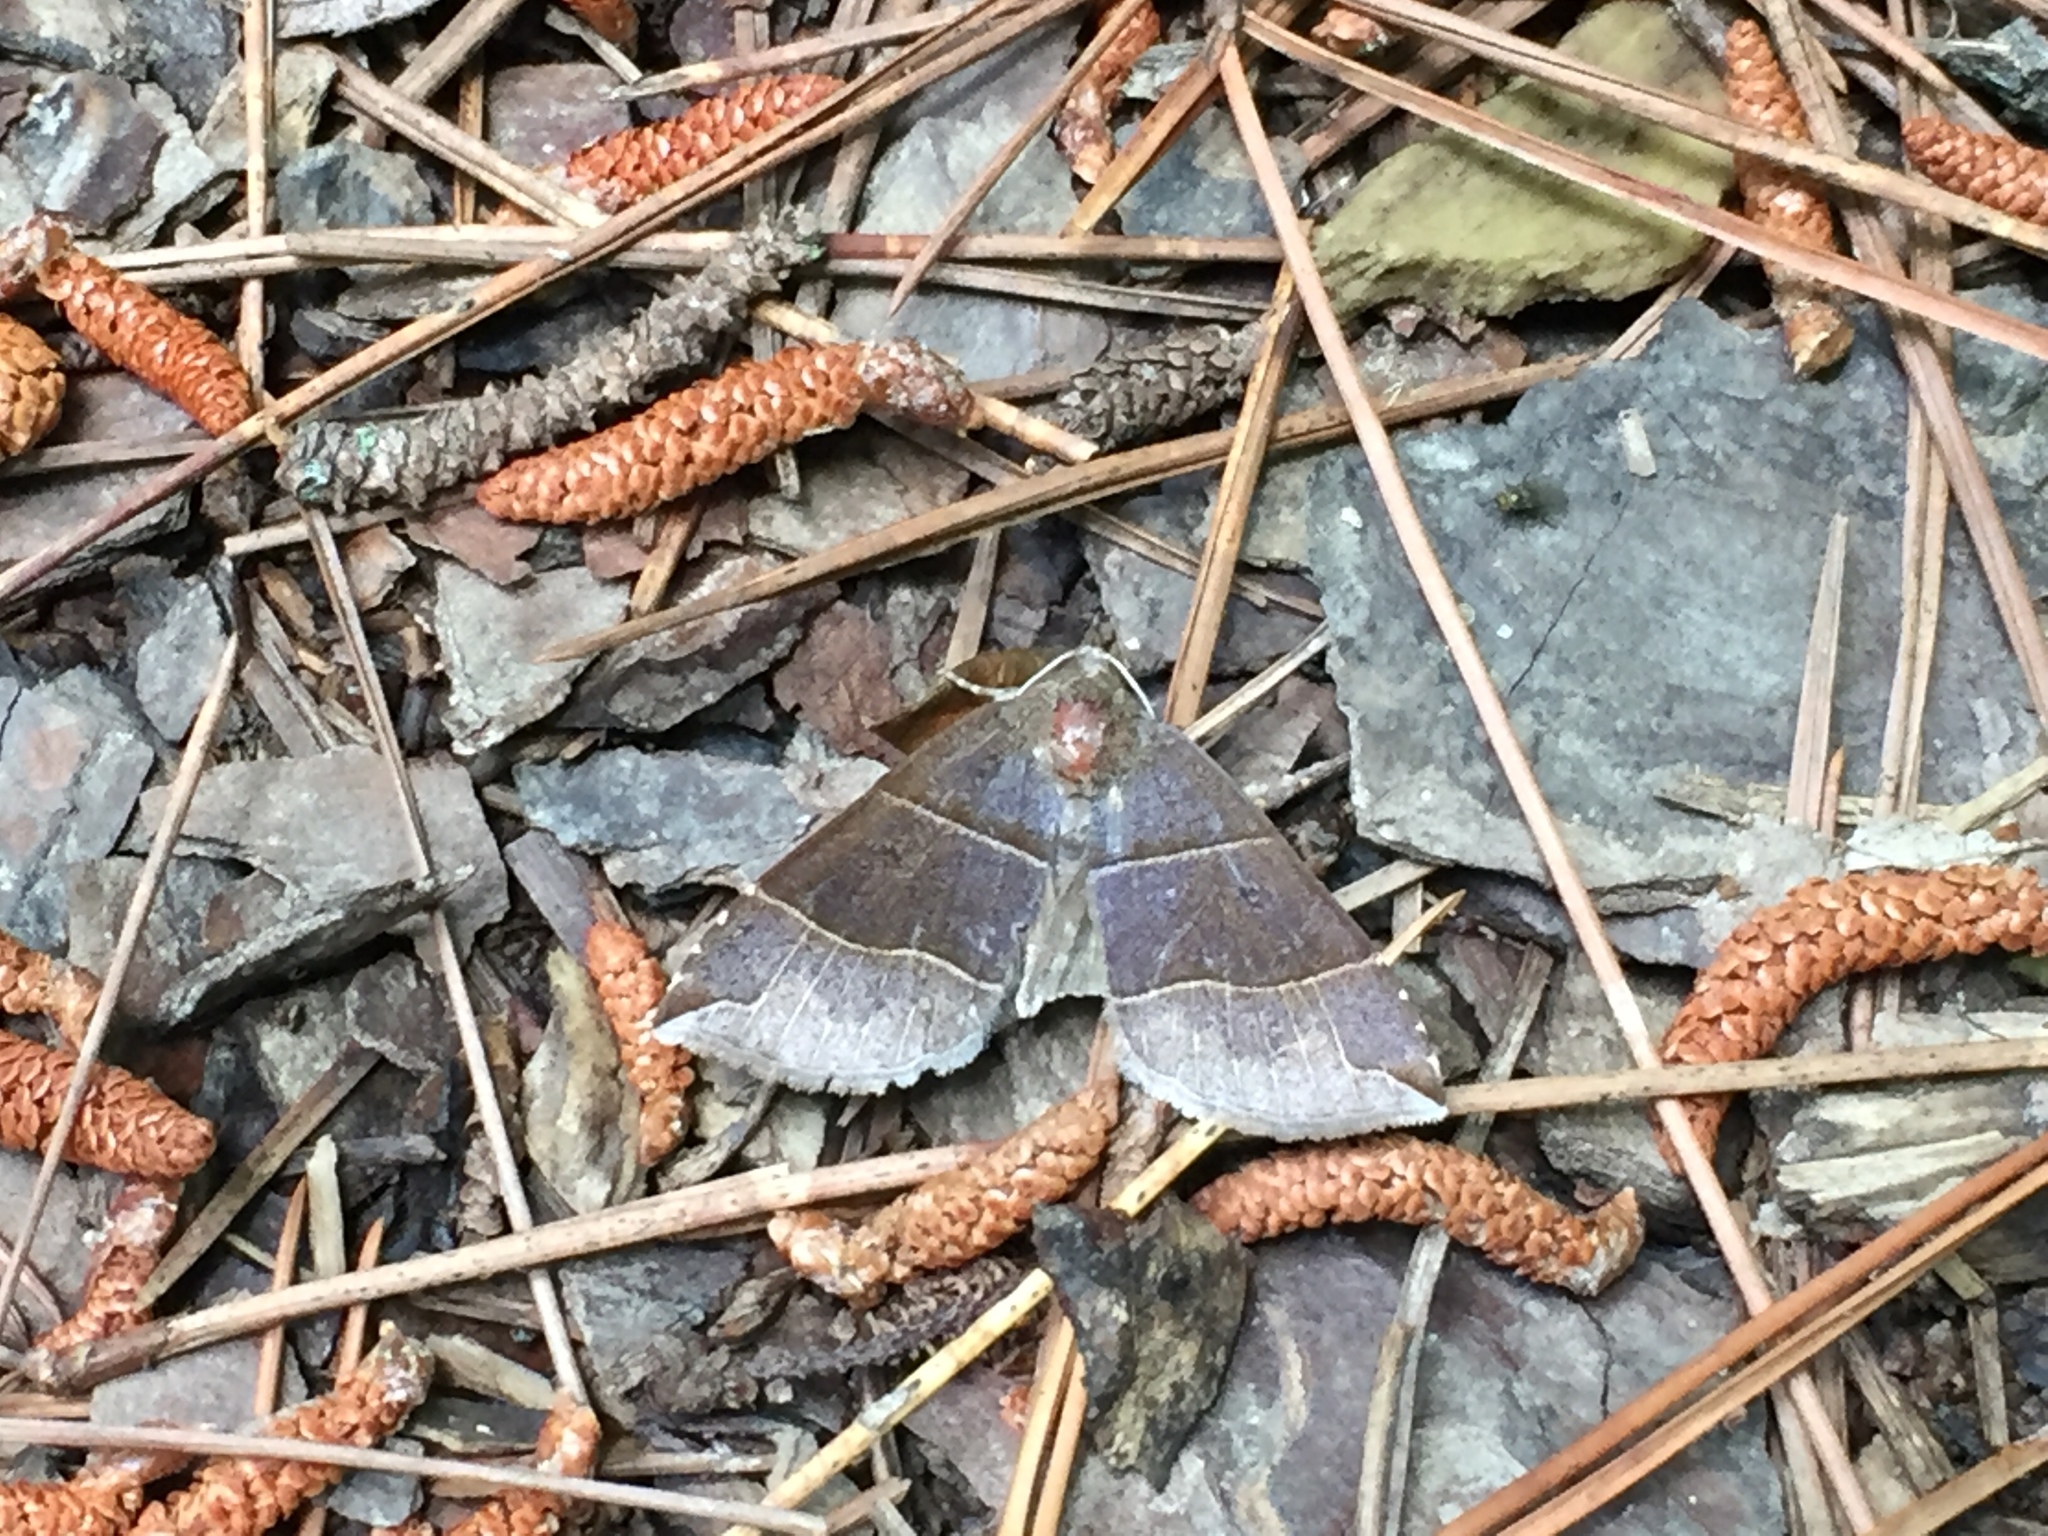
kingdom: Animalia
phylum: Arthropoda
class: Insecta
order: Lepidoptera
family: Erebidae
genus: Parallelia
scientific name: Parallelia bistriaris
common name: Maple looper moth
